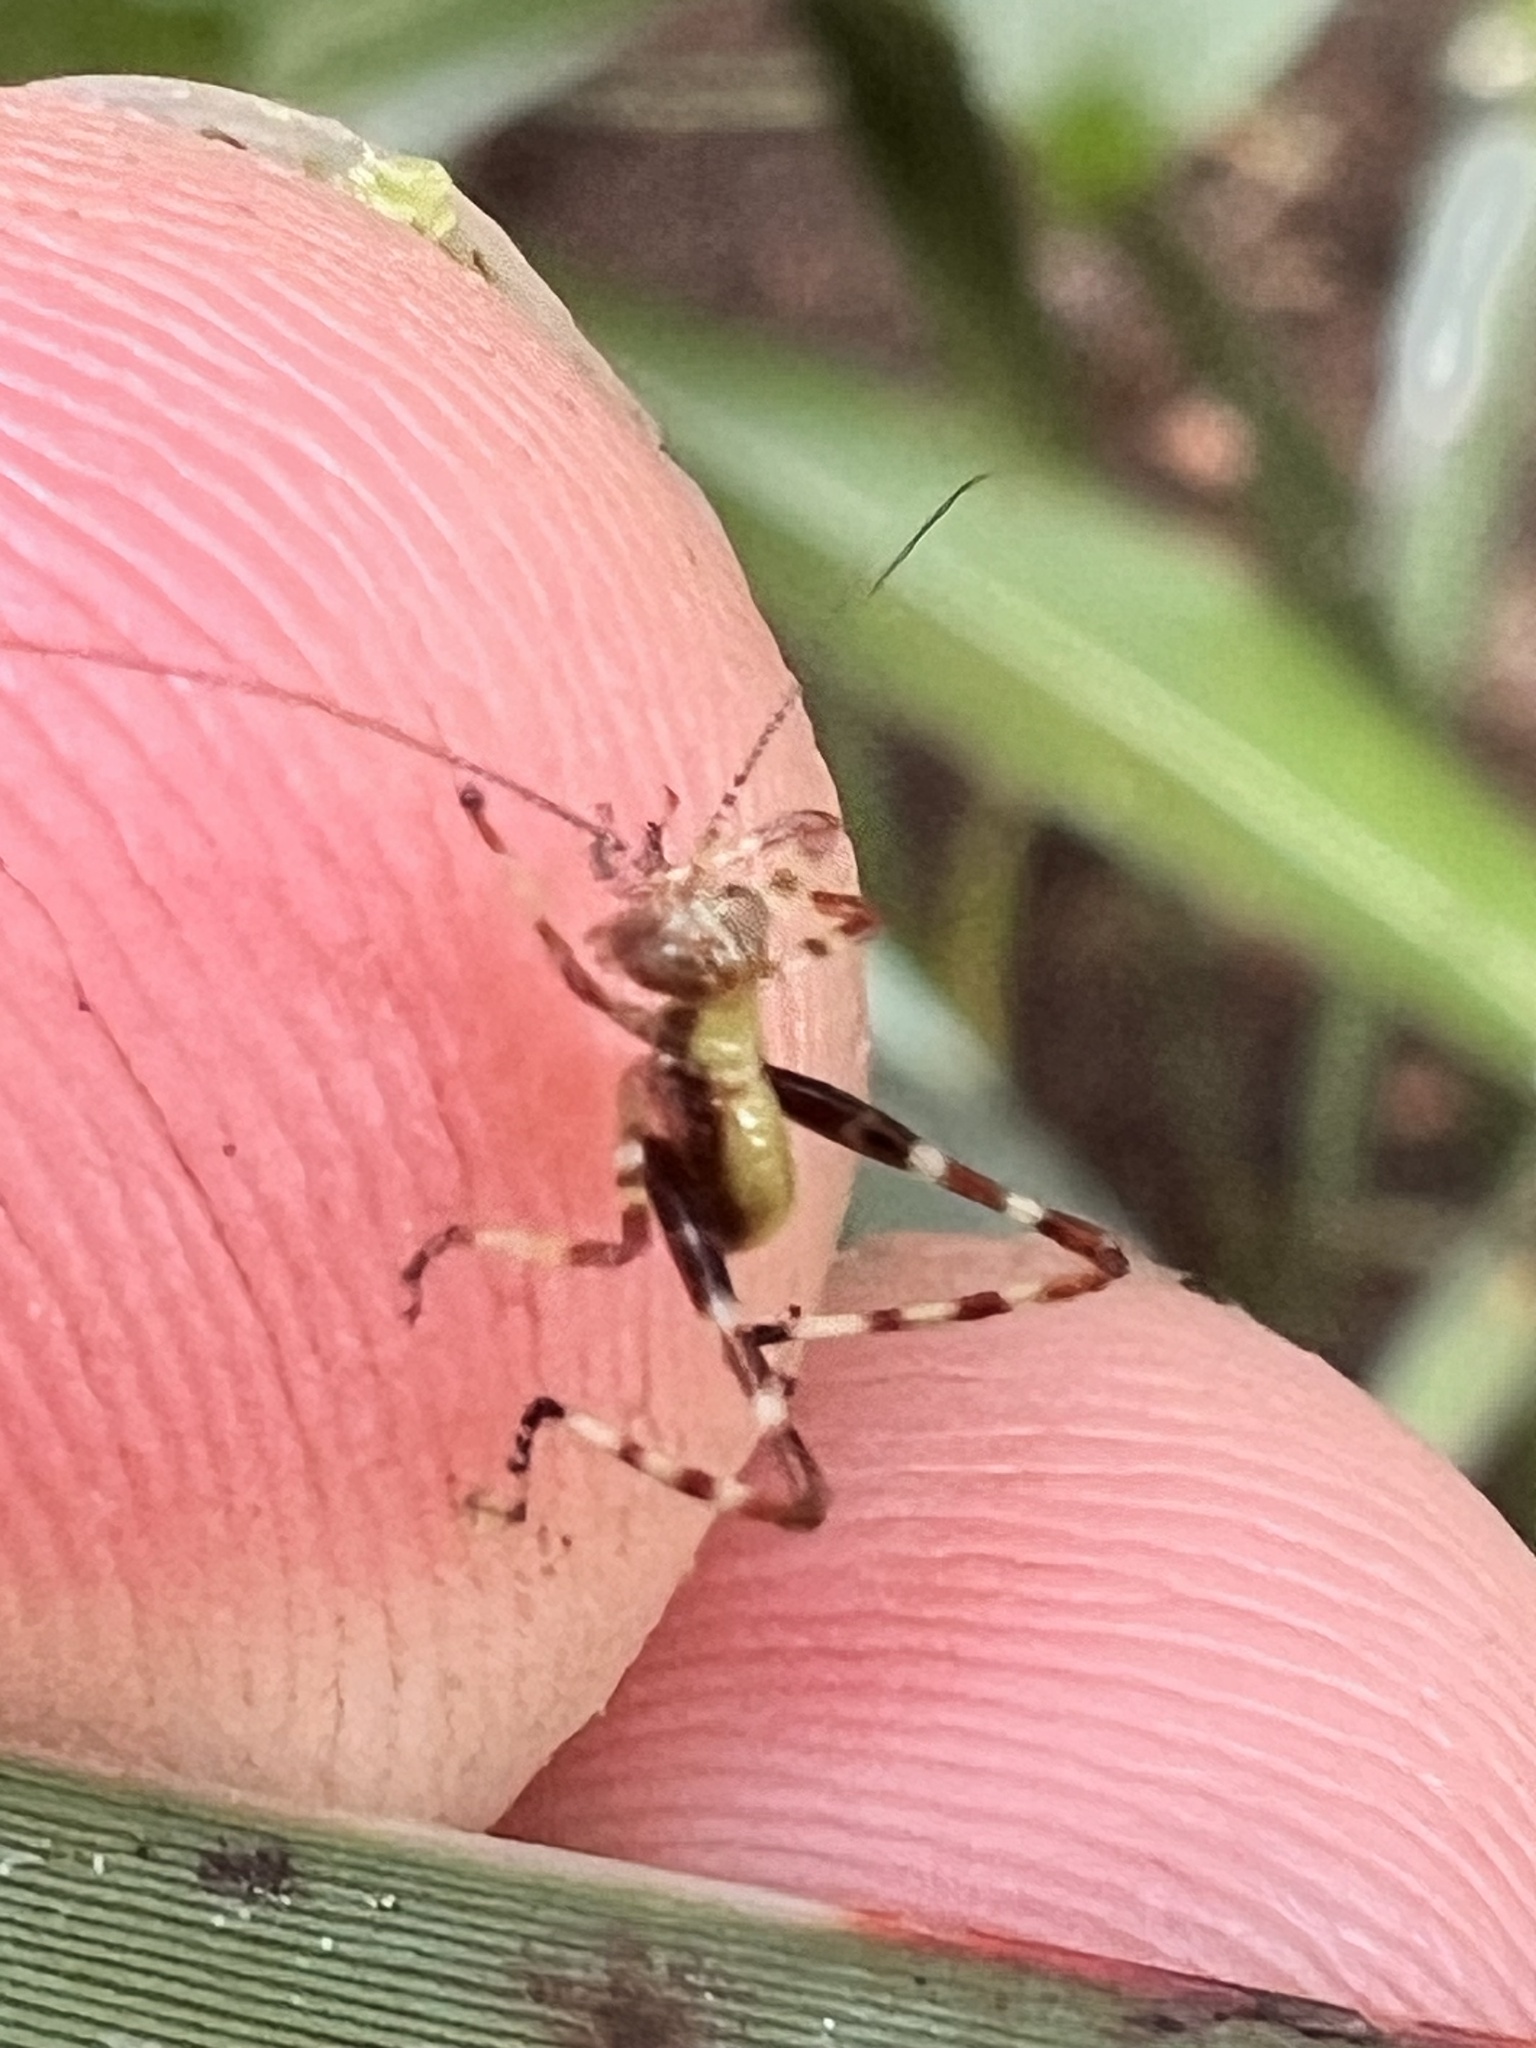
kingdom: Animalia
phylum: Arthropoda
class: Insecta
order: Orthoptera
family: Tettigoniidae
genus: Caedicia
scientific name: Caedicia simplex
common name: Common garden katydid
